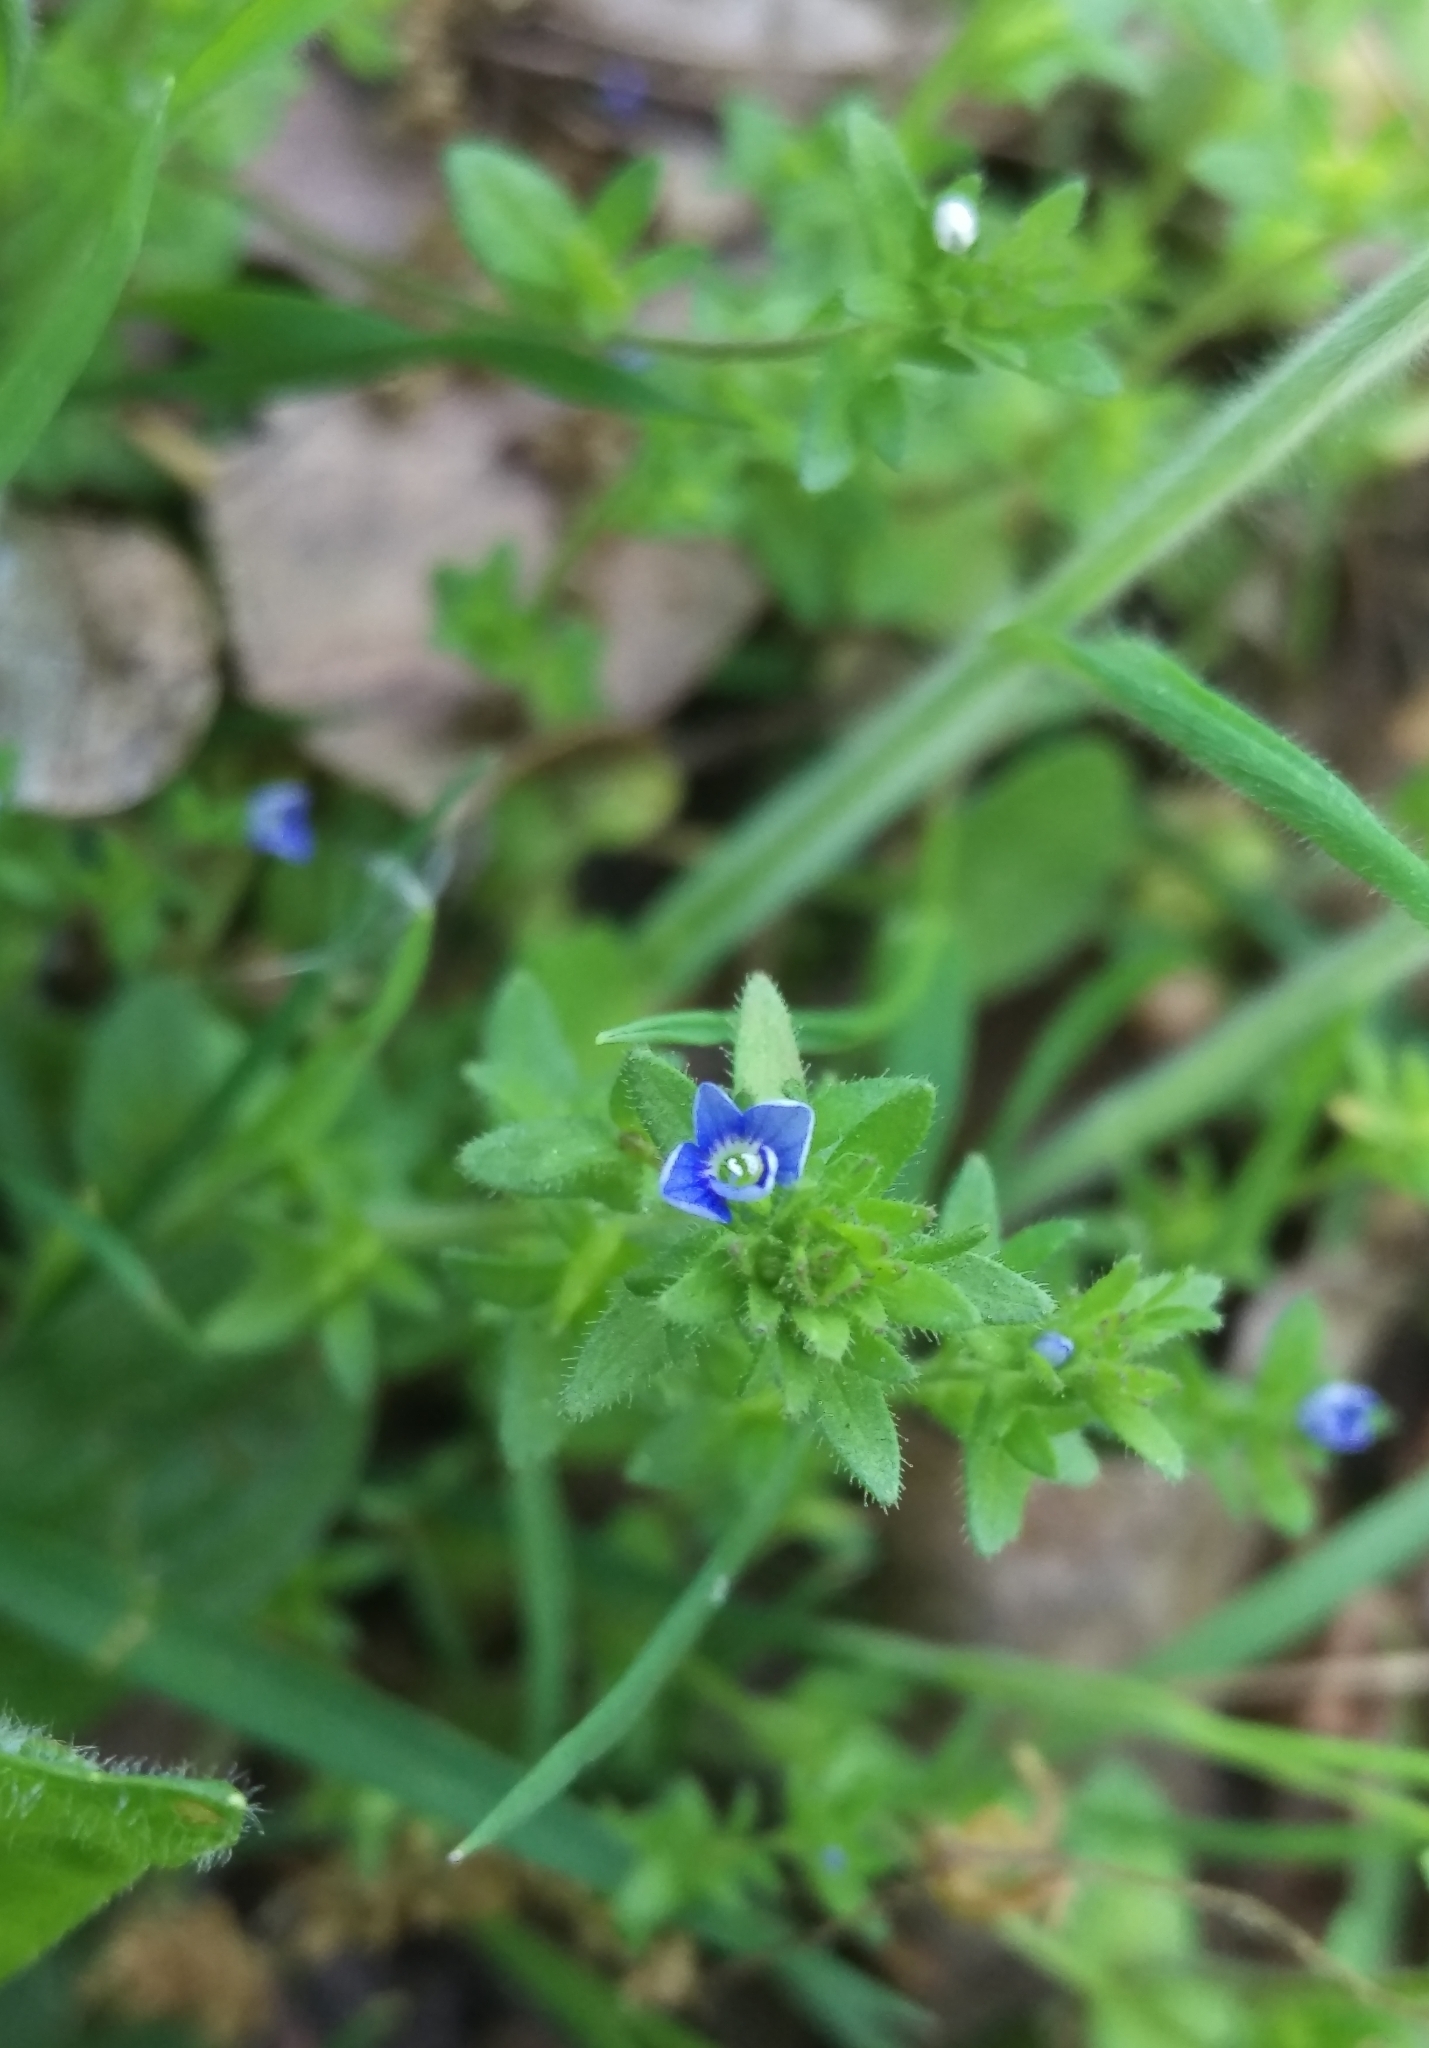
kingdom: Plantae
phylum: Tracheophyta
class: Magnoliopsida
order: Lamiales
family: Plantaginaceae
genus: Veronica
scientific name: Veronica arvensis
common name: Corn speedwell
